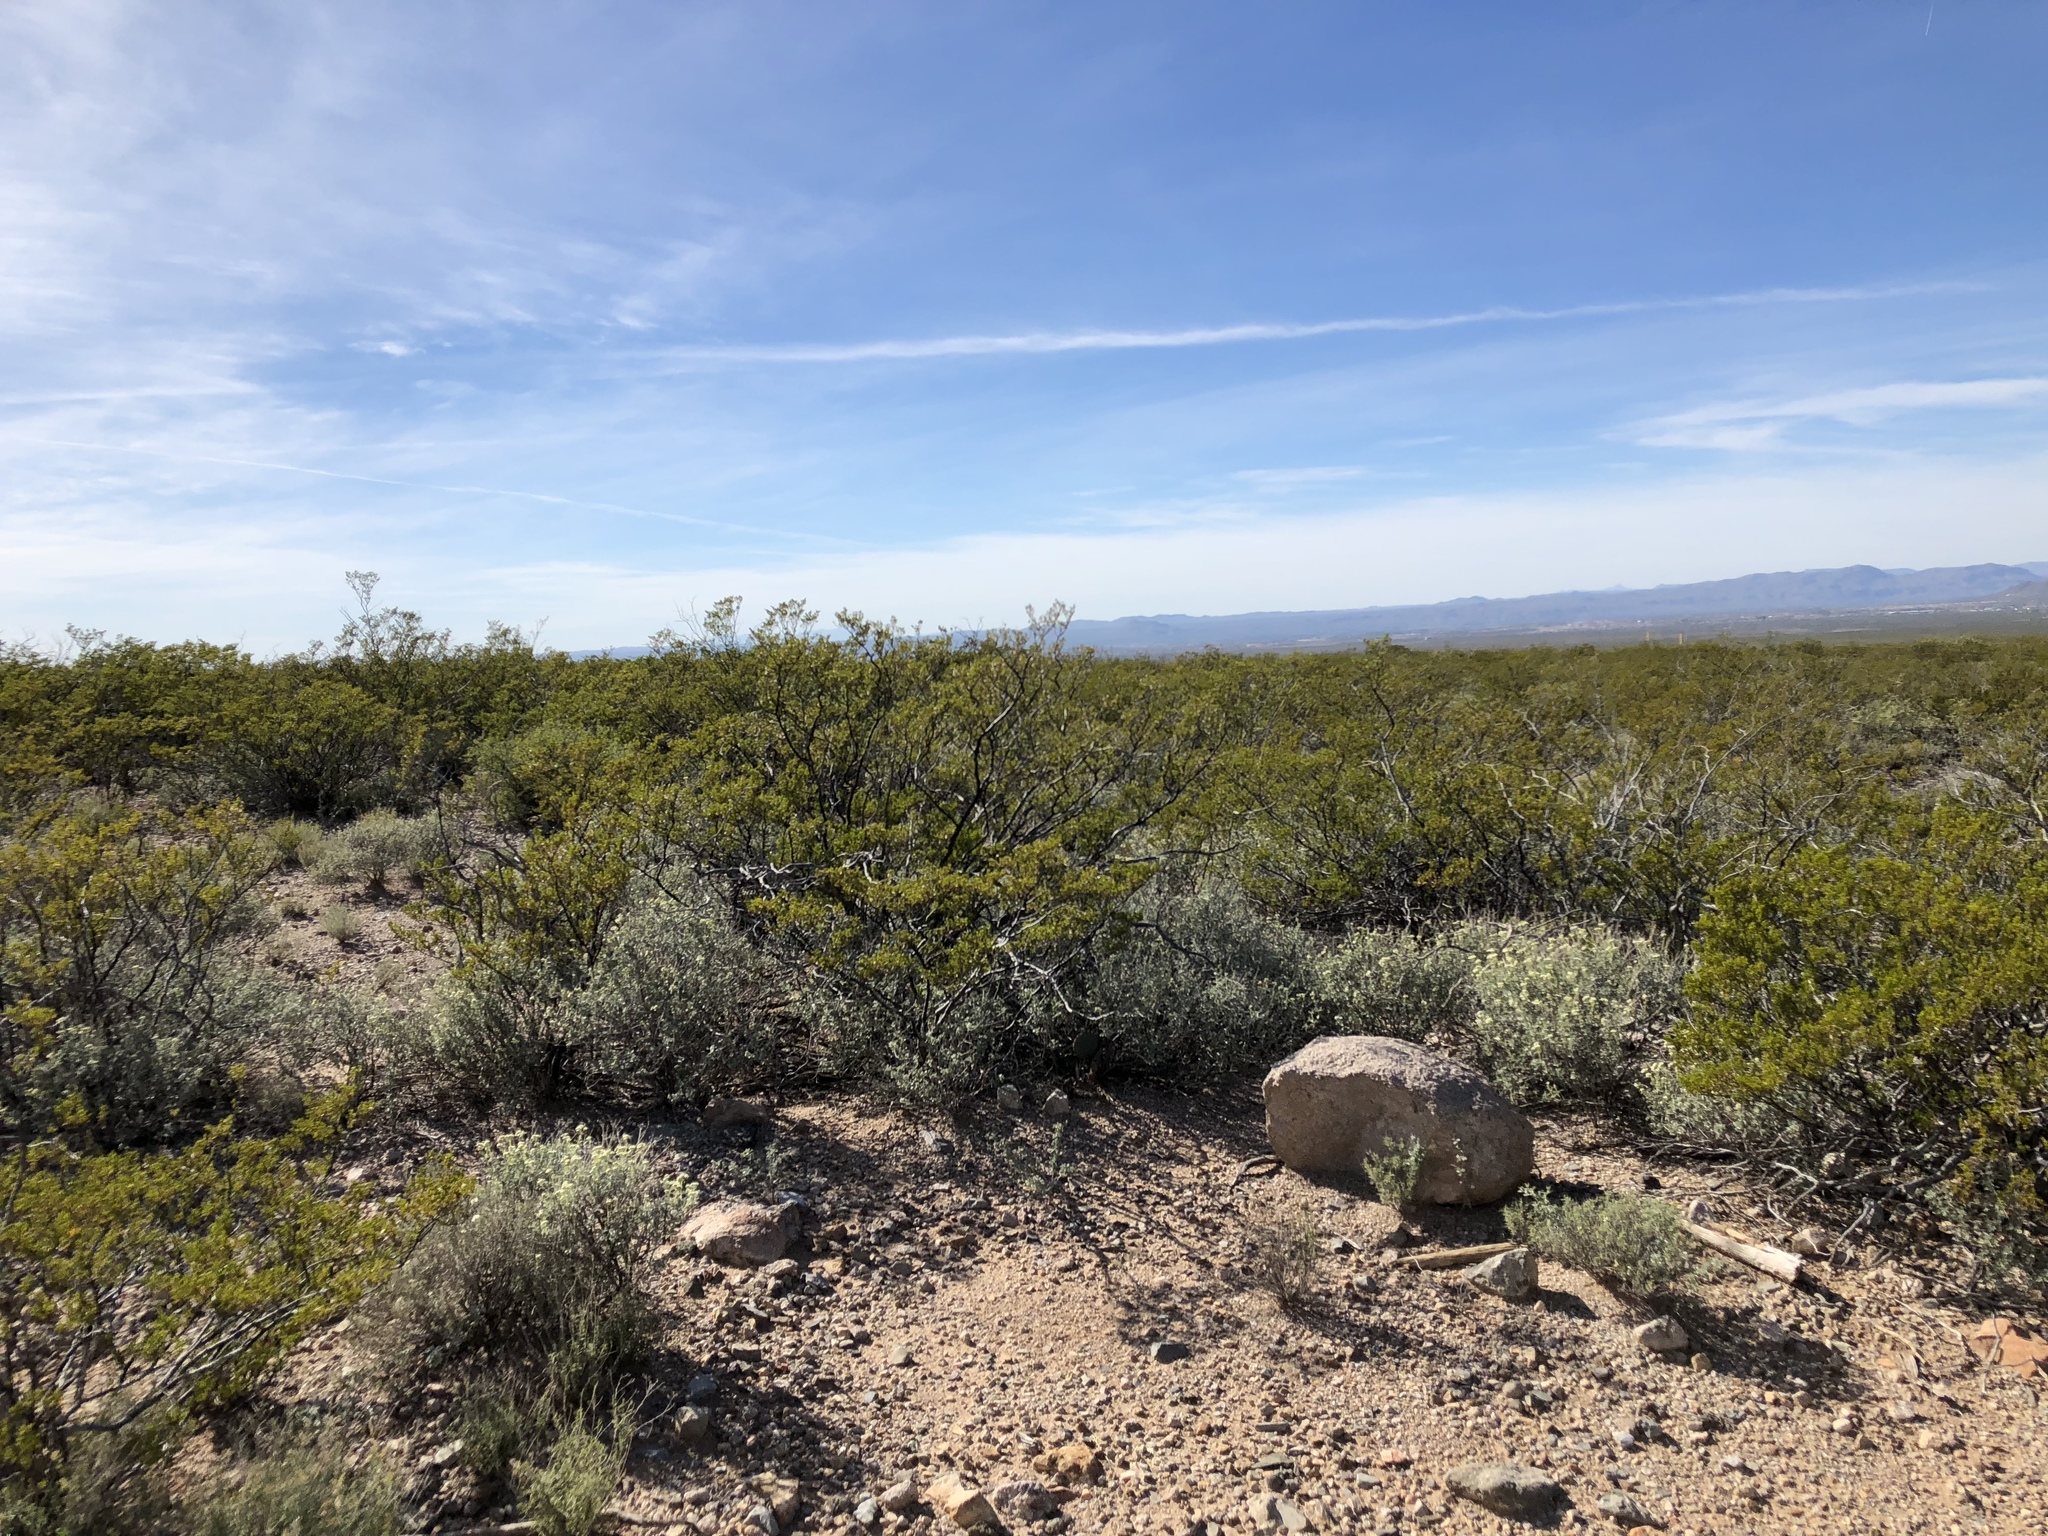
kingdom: Plantae
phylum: Tracheophyta
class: Magnoliopsida
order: Zygophyllales
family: Zygophyllaceae
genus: Larrea
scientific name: Larrea tridentata
